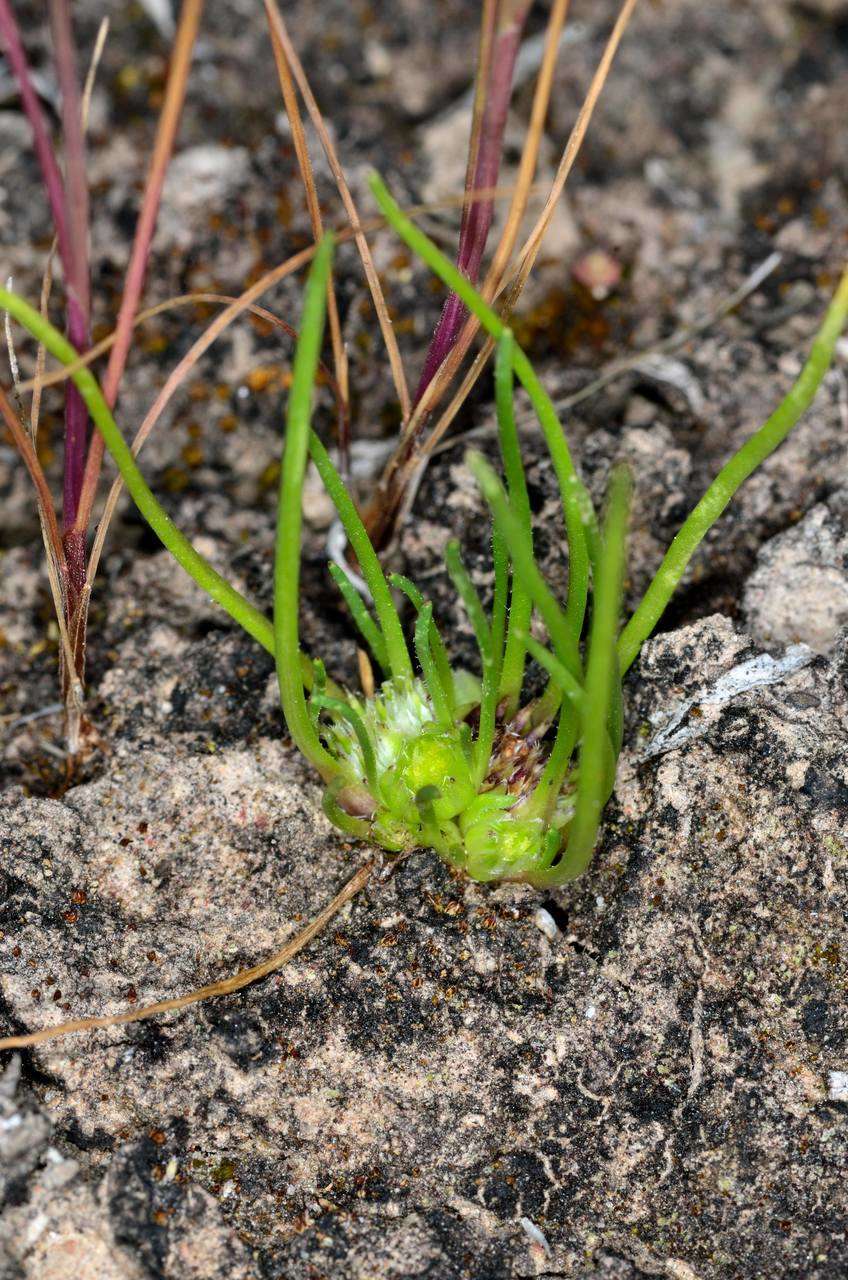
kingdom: Plantae
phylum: Tracheophyta
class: Magnoliopsida
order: Asterales
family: Asteraceae
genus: Isoetopsis
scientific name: Isoetopsis graminifolia
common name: Grass-cushion
